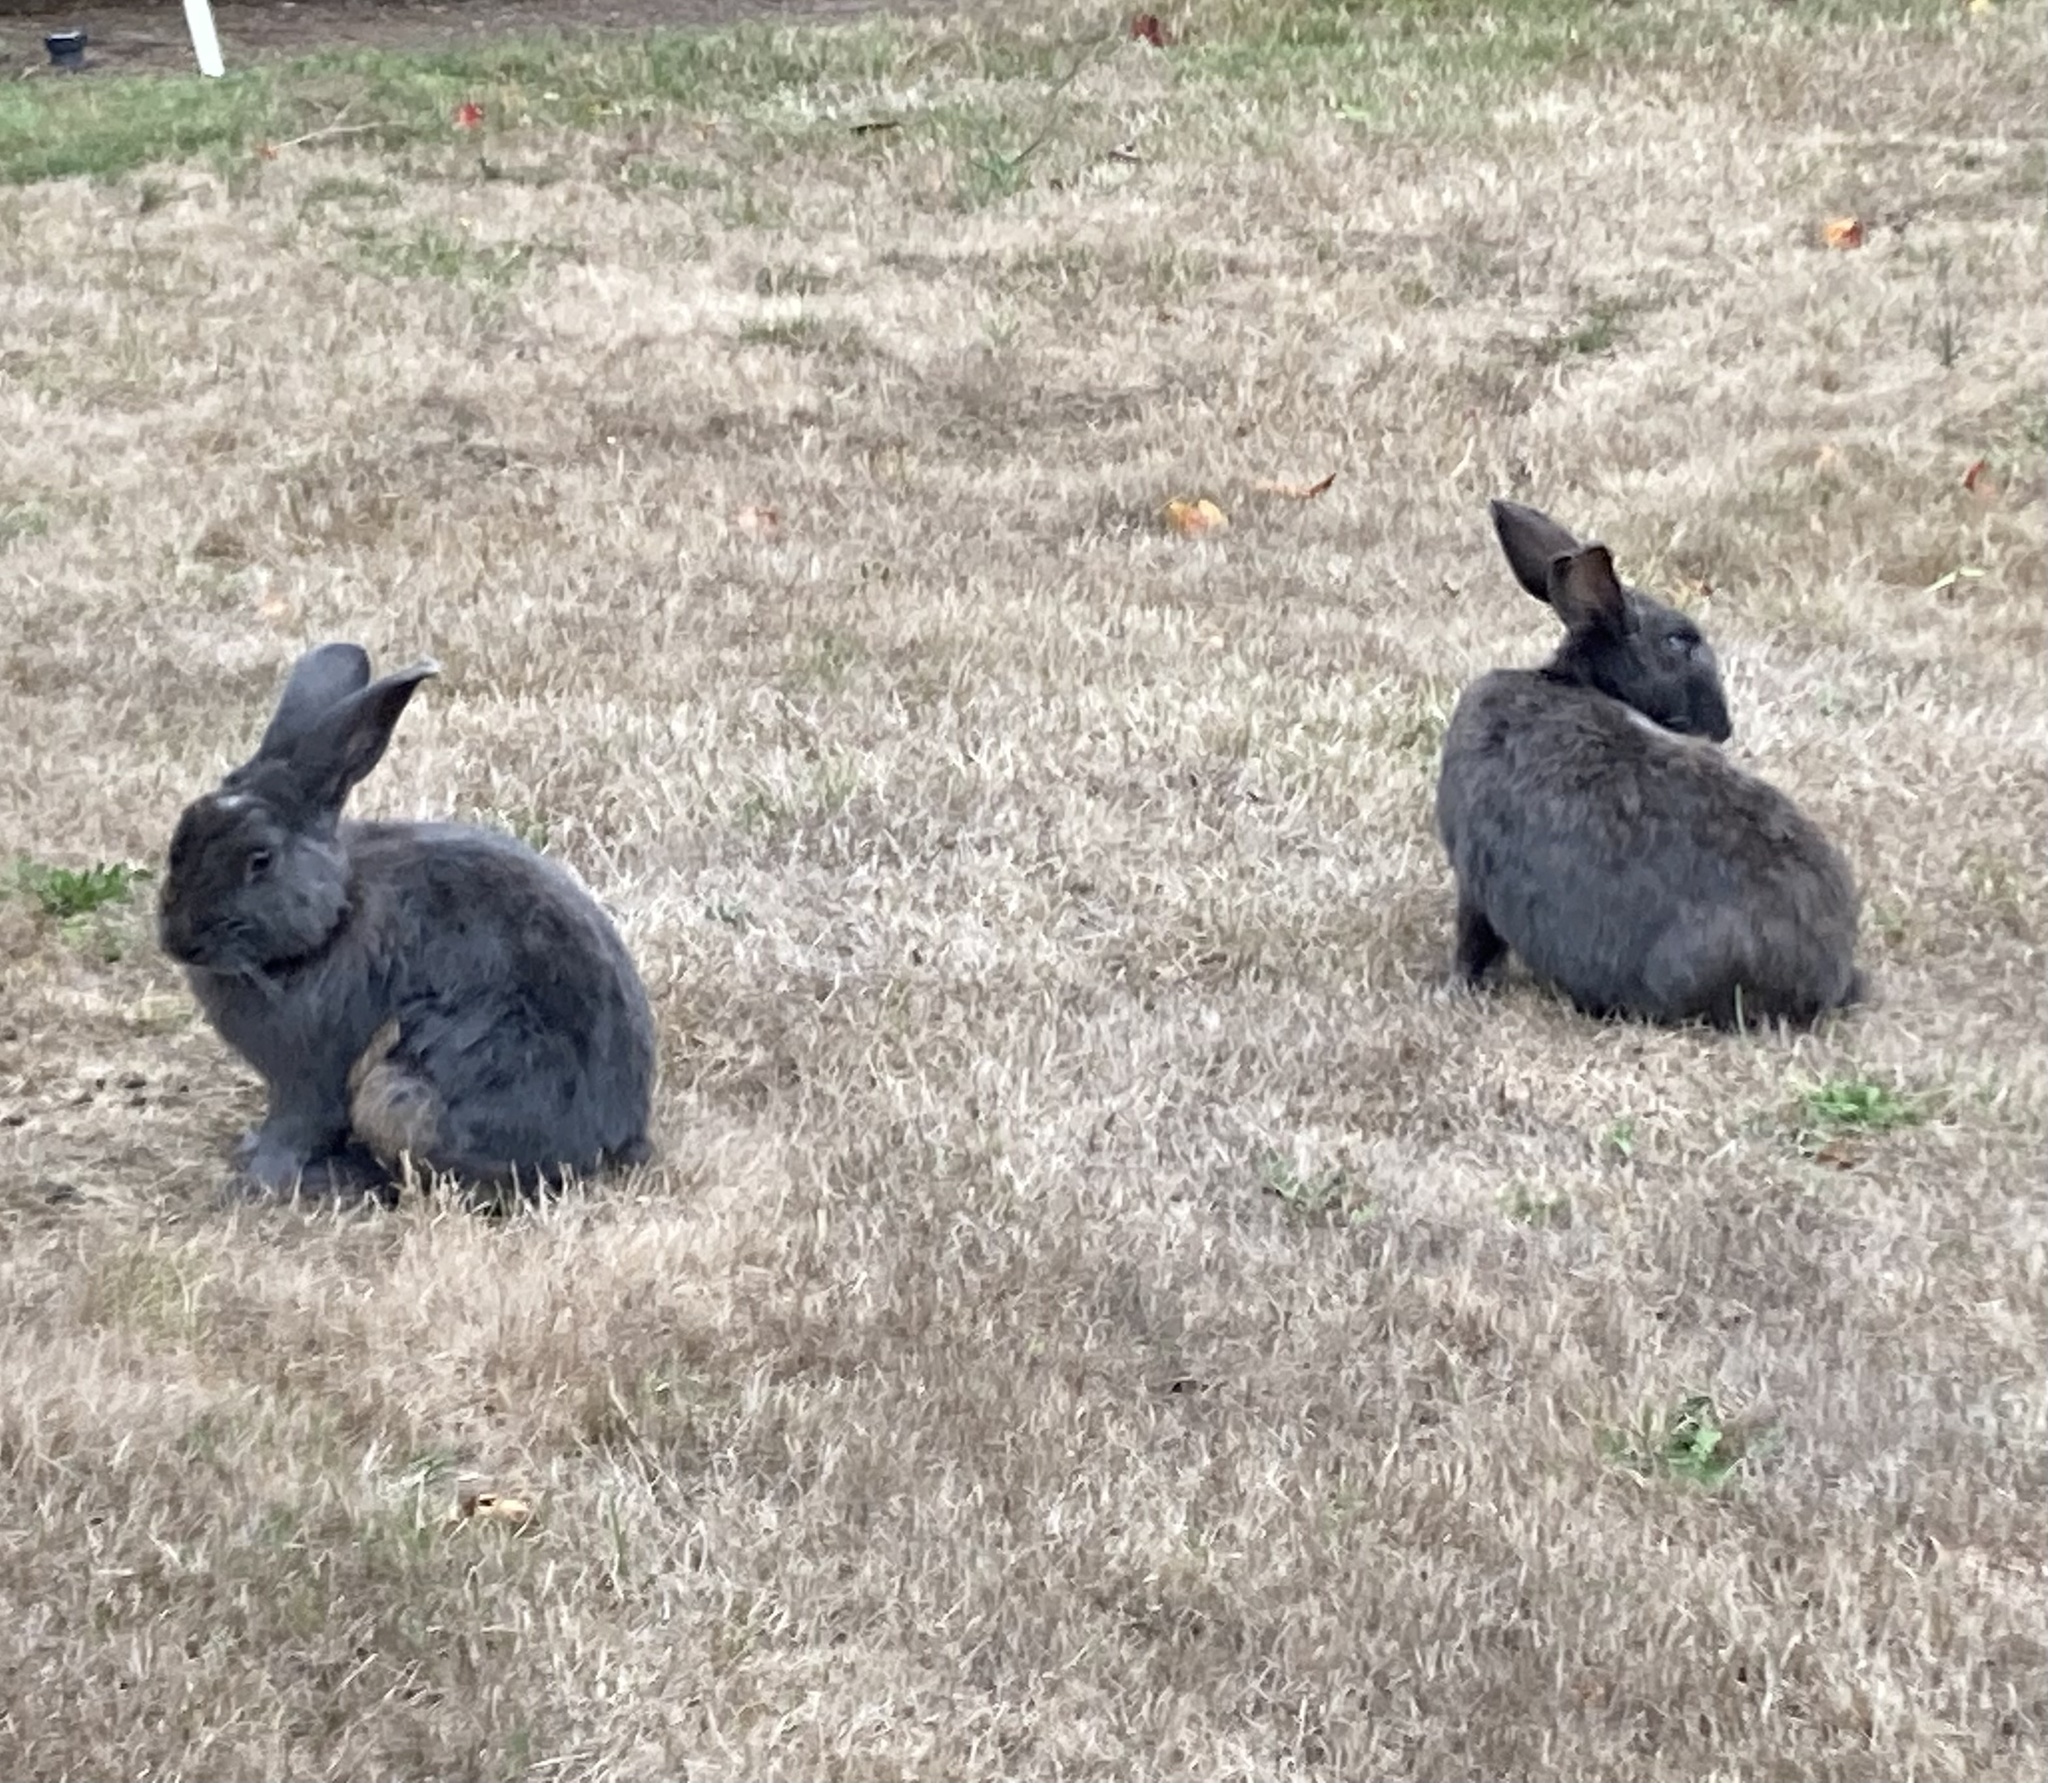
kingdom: Animalia
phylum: Chordata
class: Mammalia
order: Lagomorpha
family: Leporidae
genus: Oryctolagus
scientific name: Oryctolagus cuniculus
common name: European rabbit
